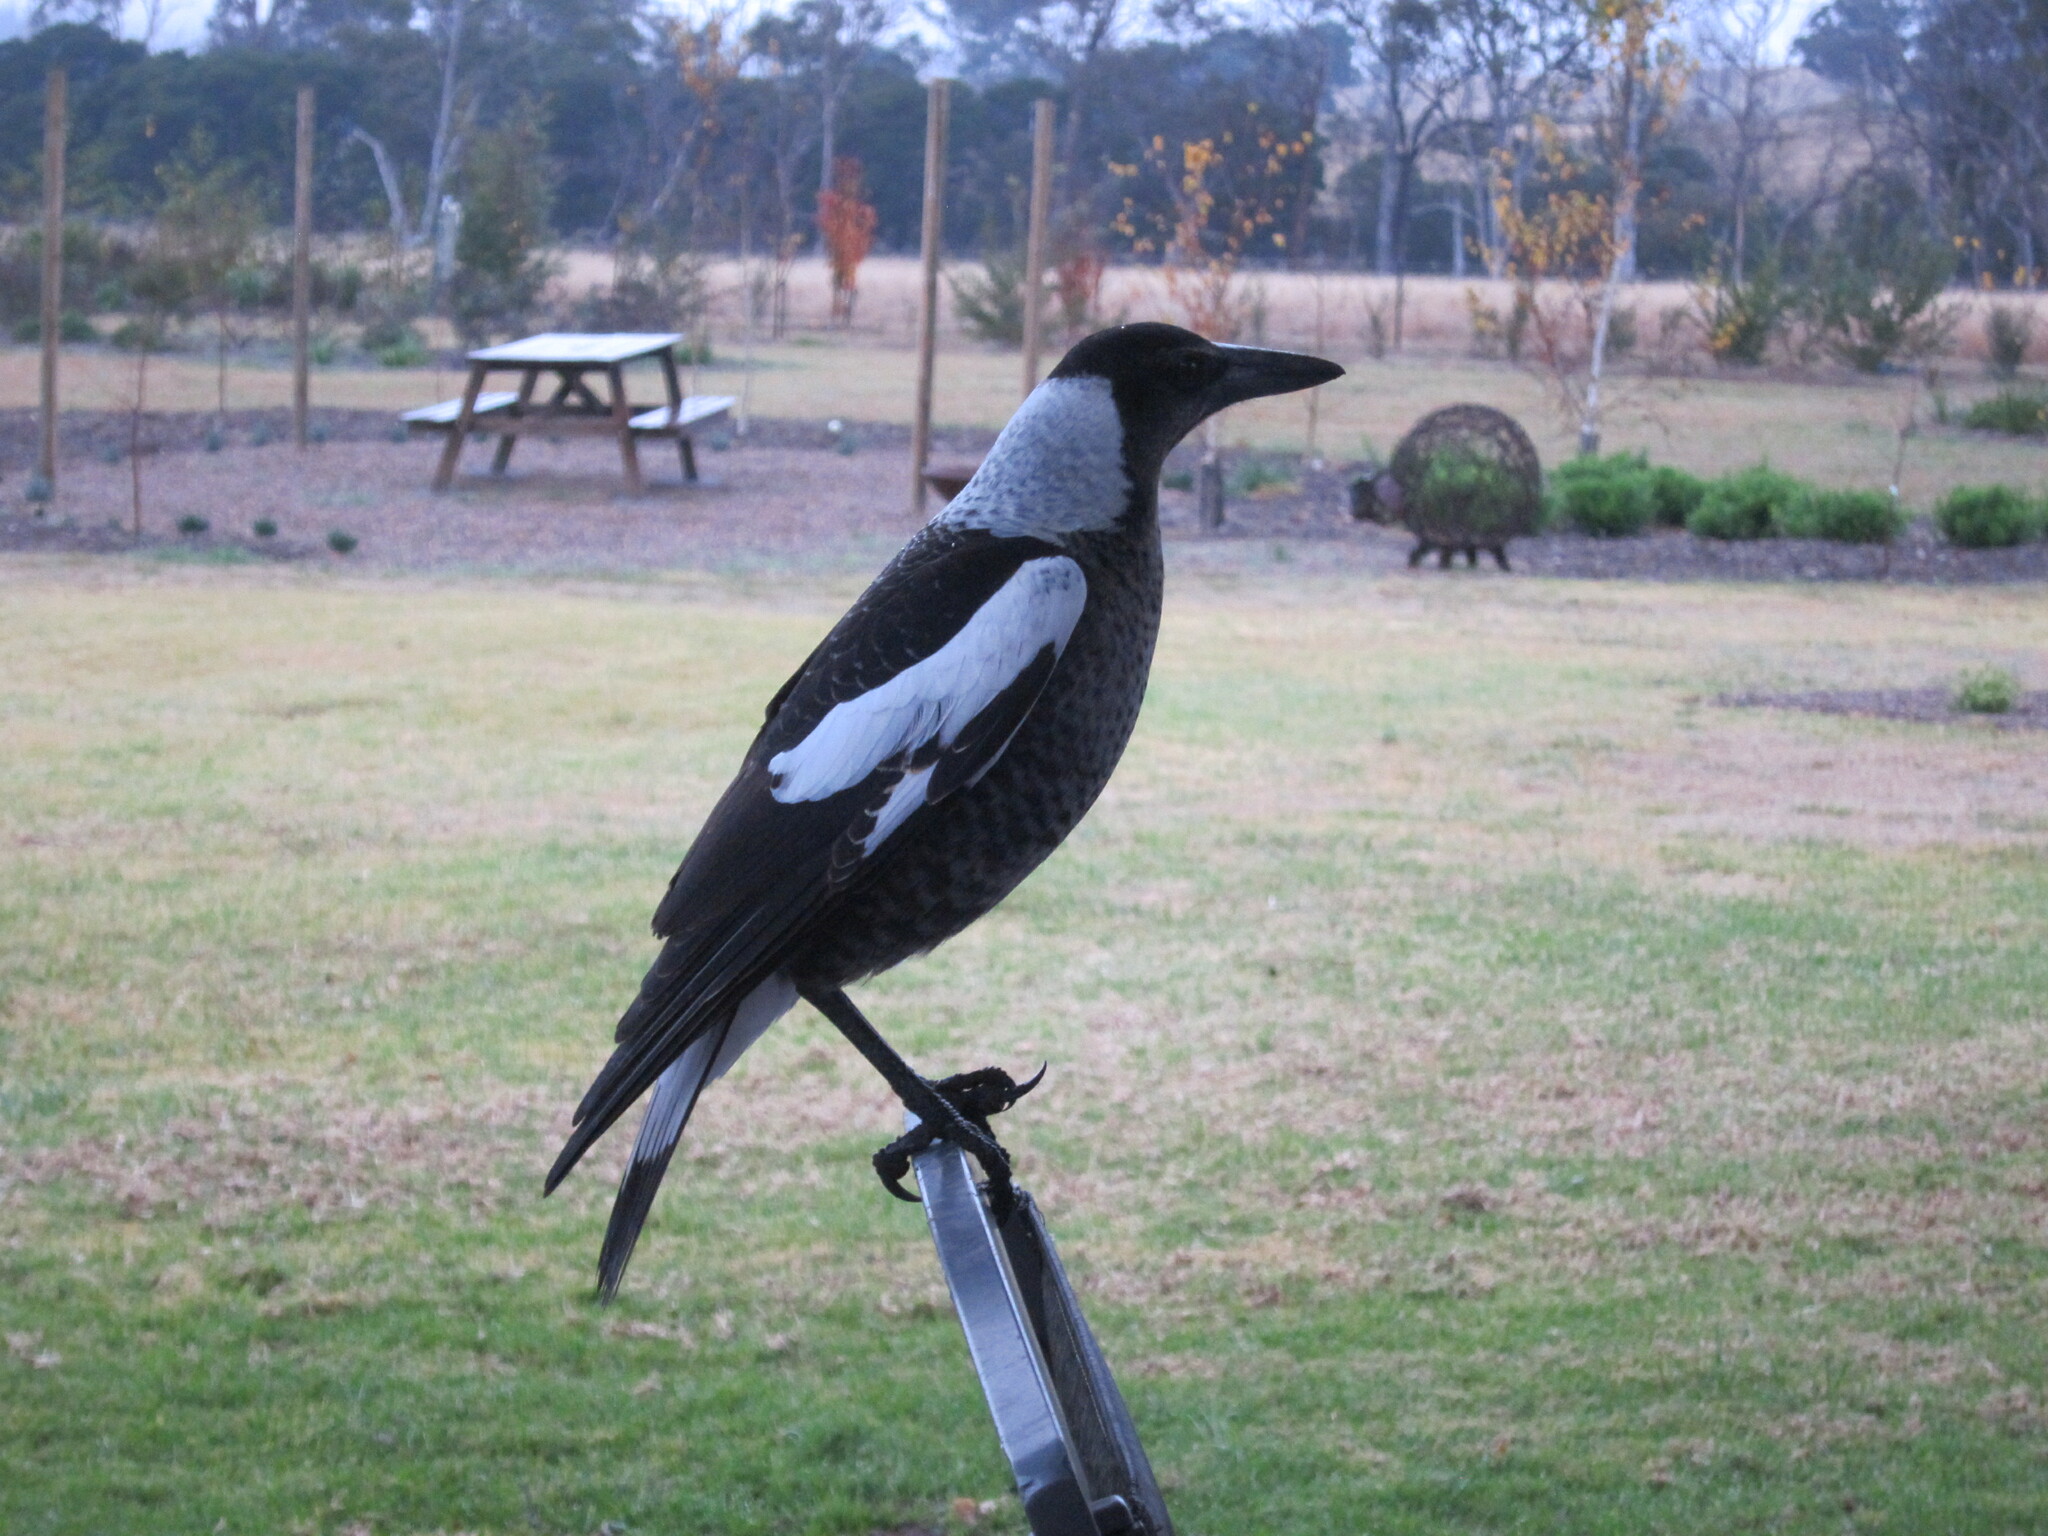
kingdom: Animalia
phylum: Chordata
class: Aves
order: Passeriformes
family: Cracticidae
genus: Gymnorhina
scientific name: Gymnorhina tibicen
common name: Australian magpie
